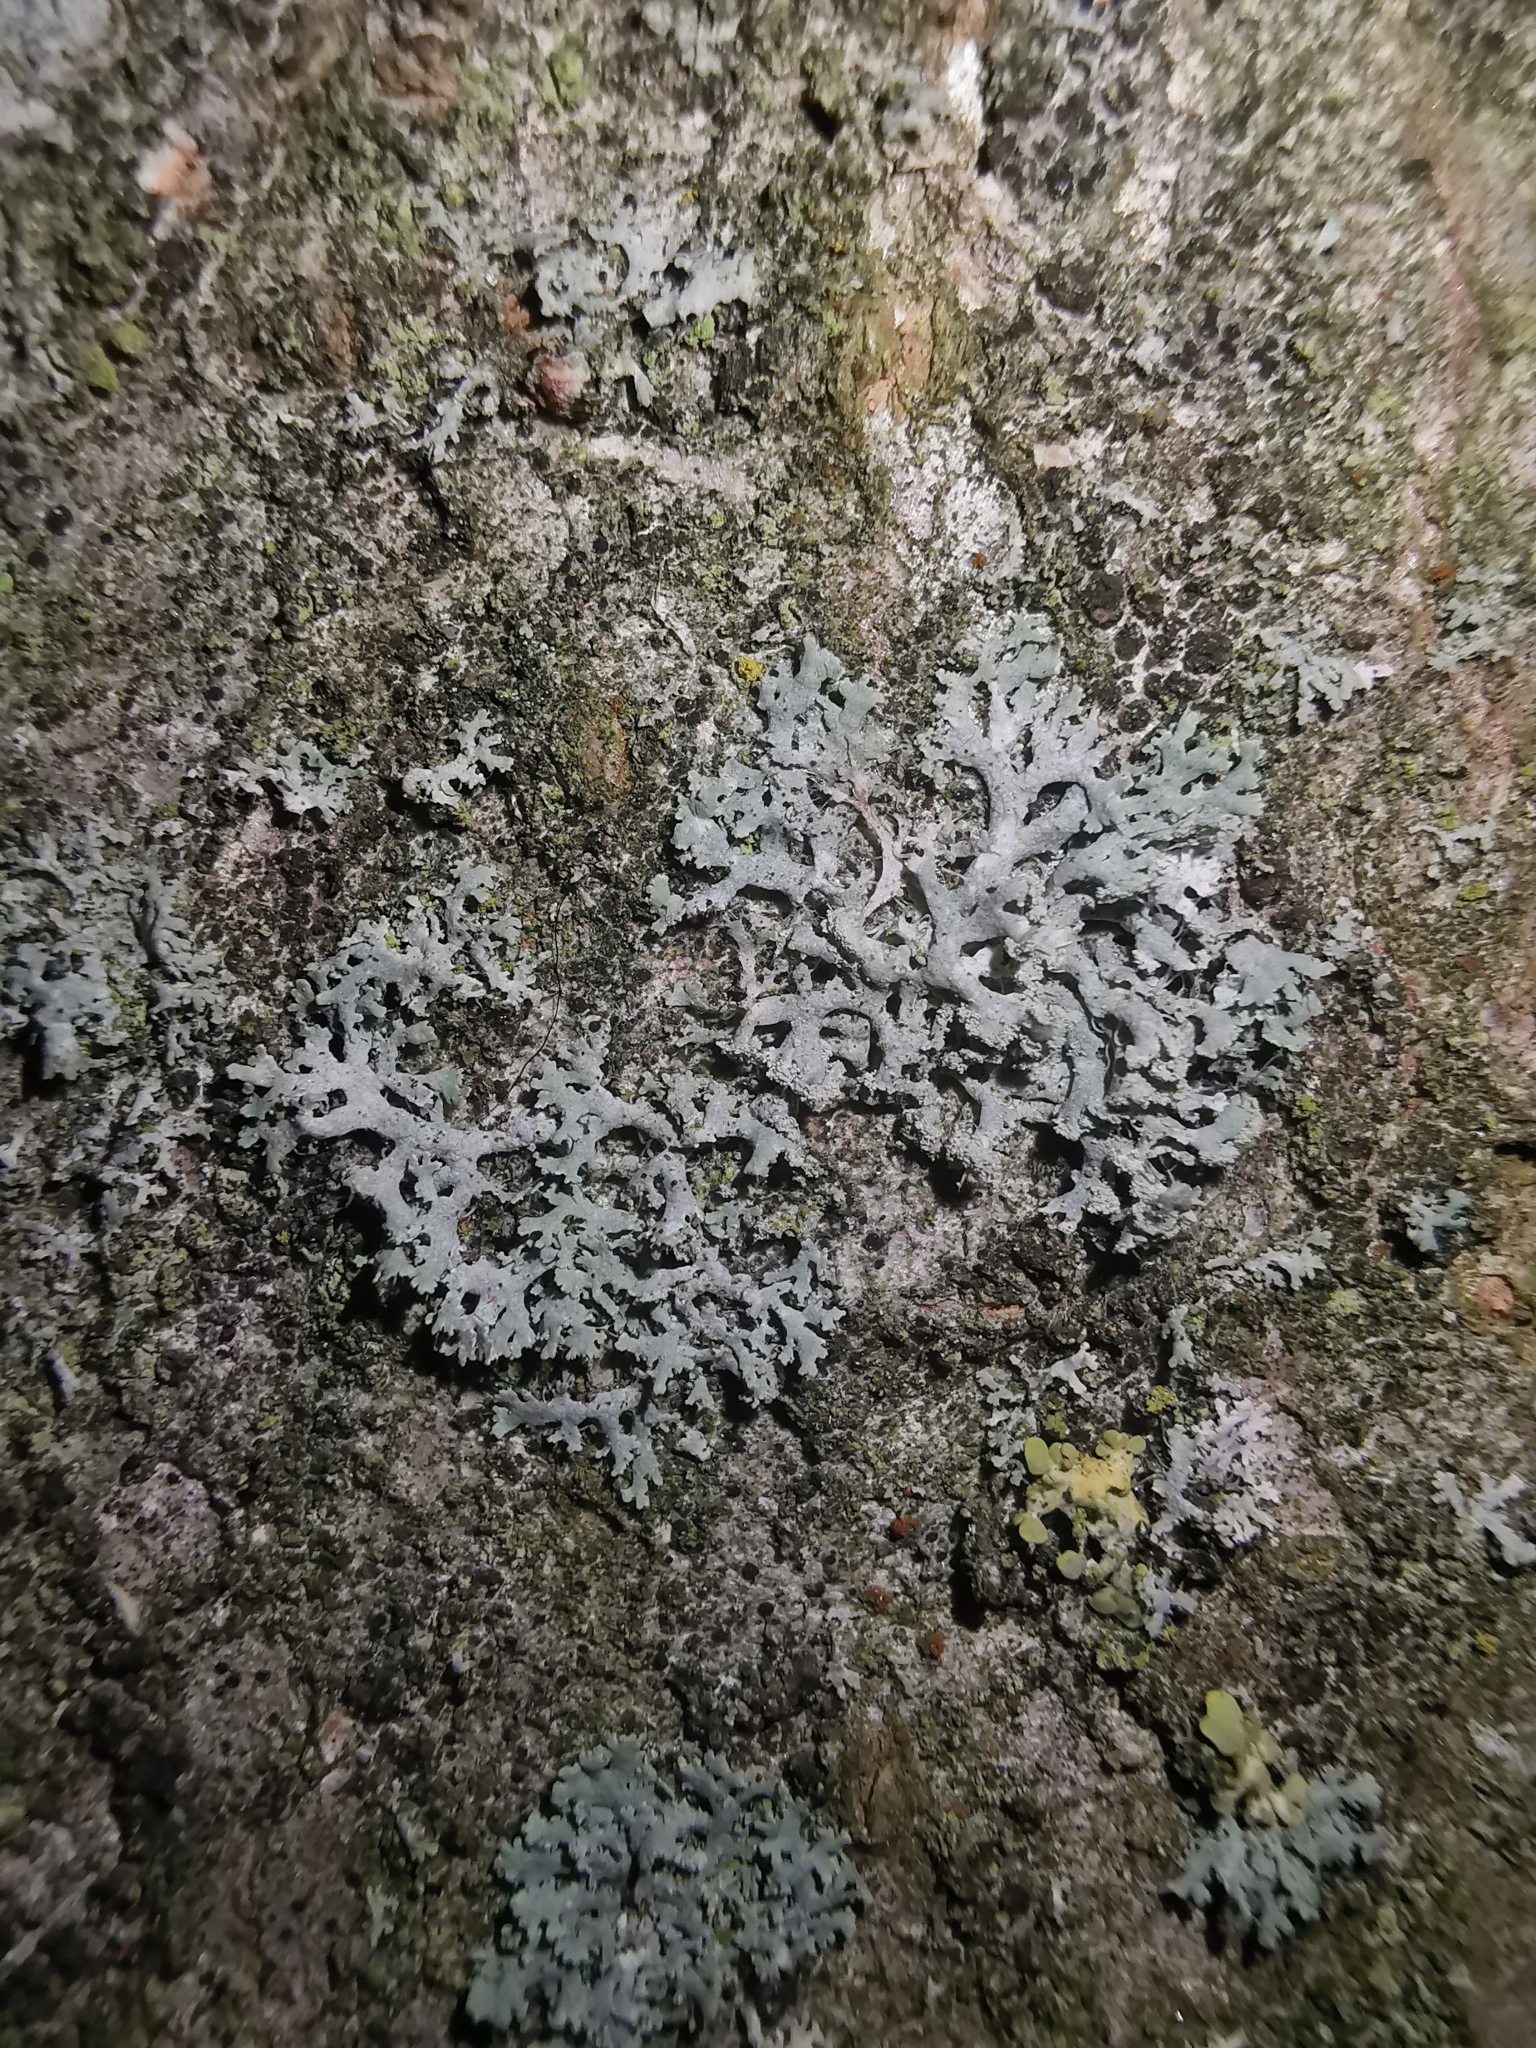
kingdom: Fungi
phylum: Ascomycota
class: Lecanoromycetes
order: Caliciales
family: Physciaceae
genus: Physcia
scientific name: Physcia tenella
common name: Fringed rosette lichen
